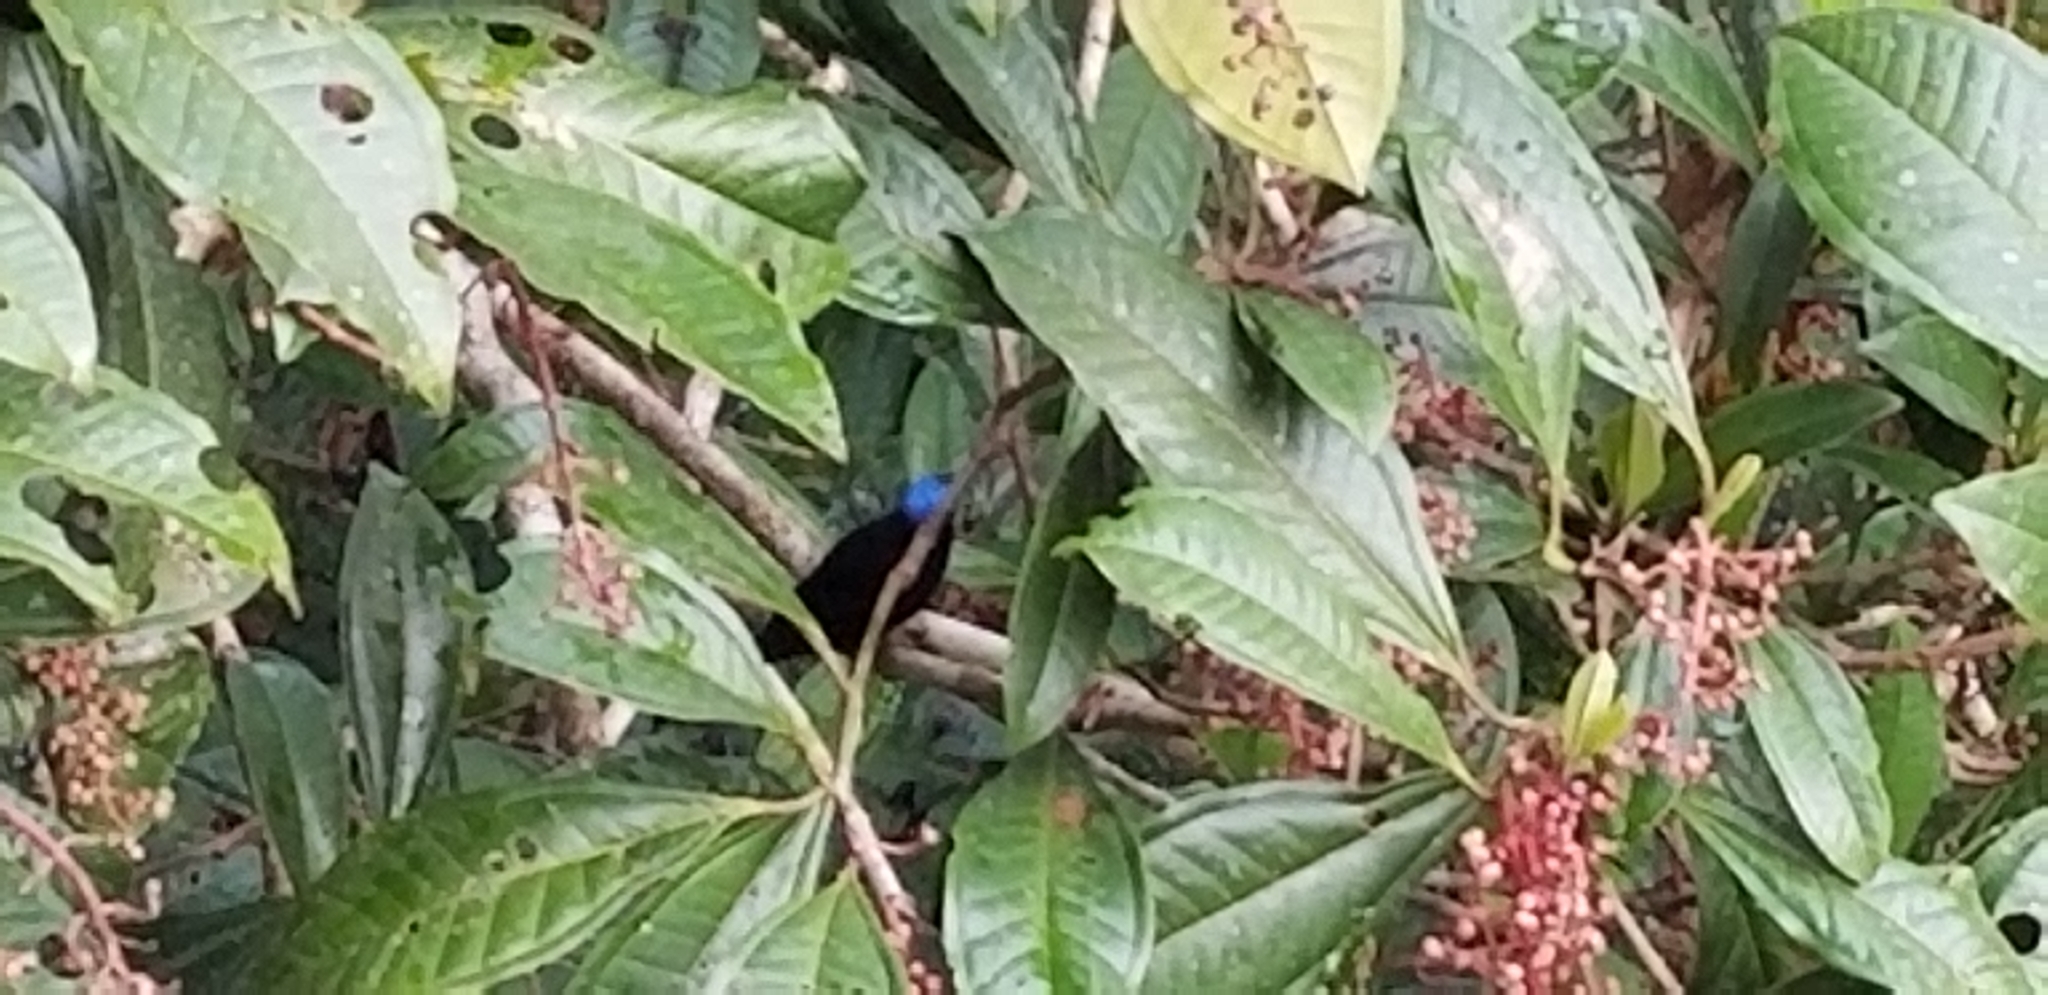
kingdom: Animalia
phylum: Chordata
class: Aves
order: Passeriformes
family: Pipridae
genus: Lepidothrix
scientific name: Lepidothrix coronata
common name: Blue-crowned manakin
